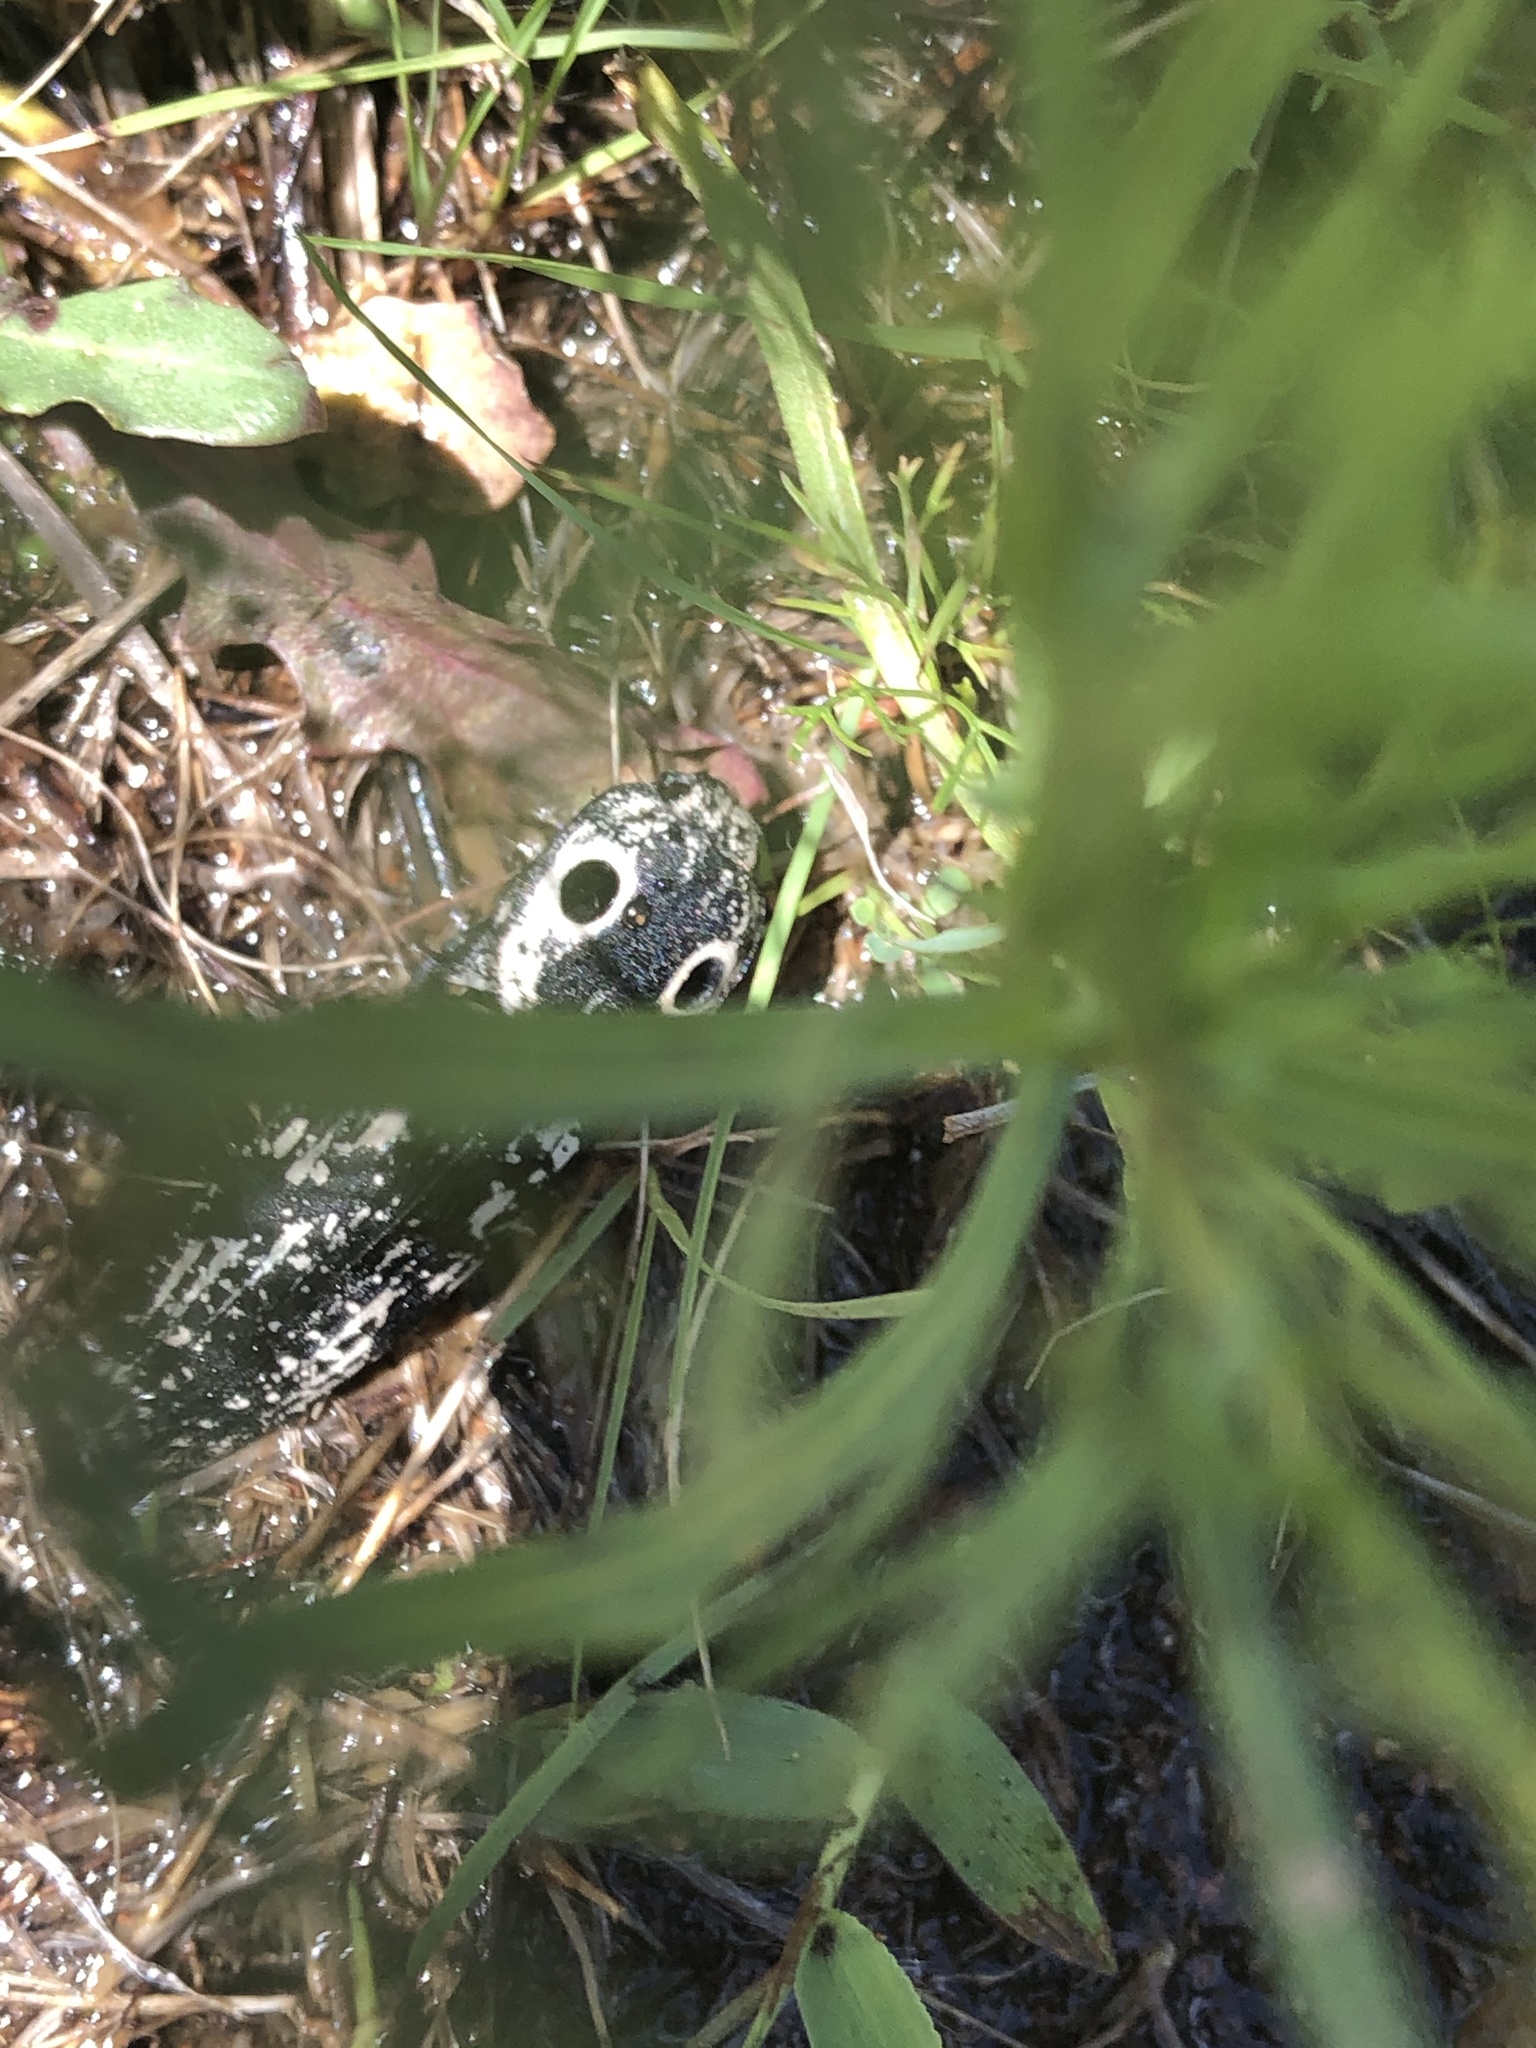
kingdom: Animalia
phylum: Arthropoda
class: Insecta
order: Coleoptera
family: Elateridae
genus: Alaus
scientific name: Alaus
